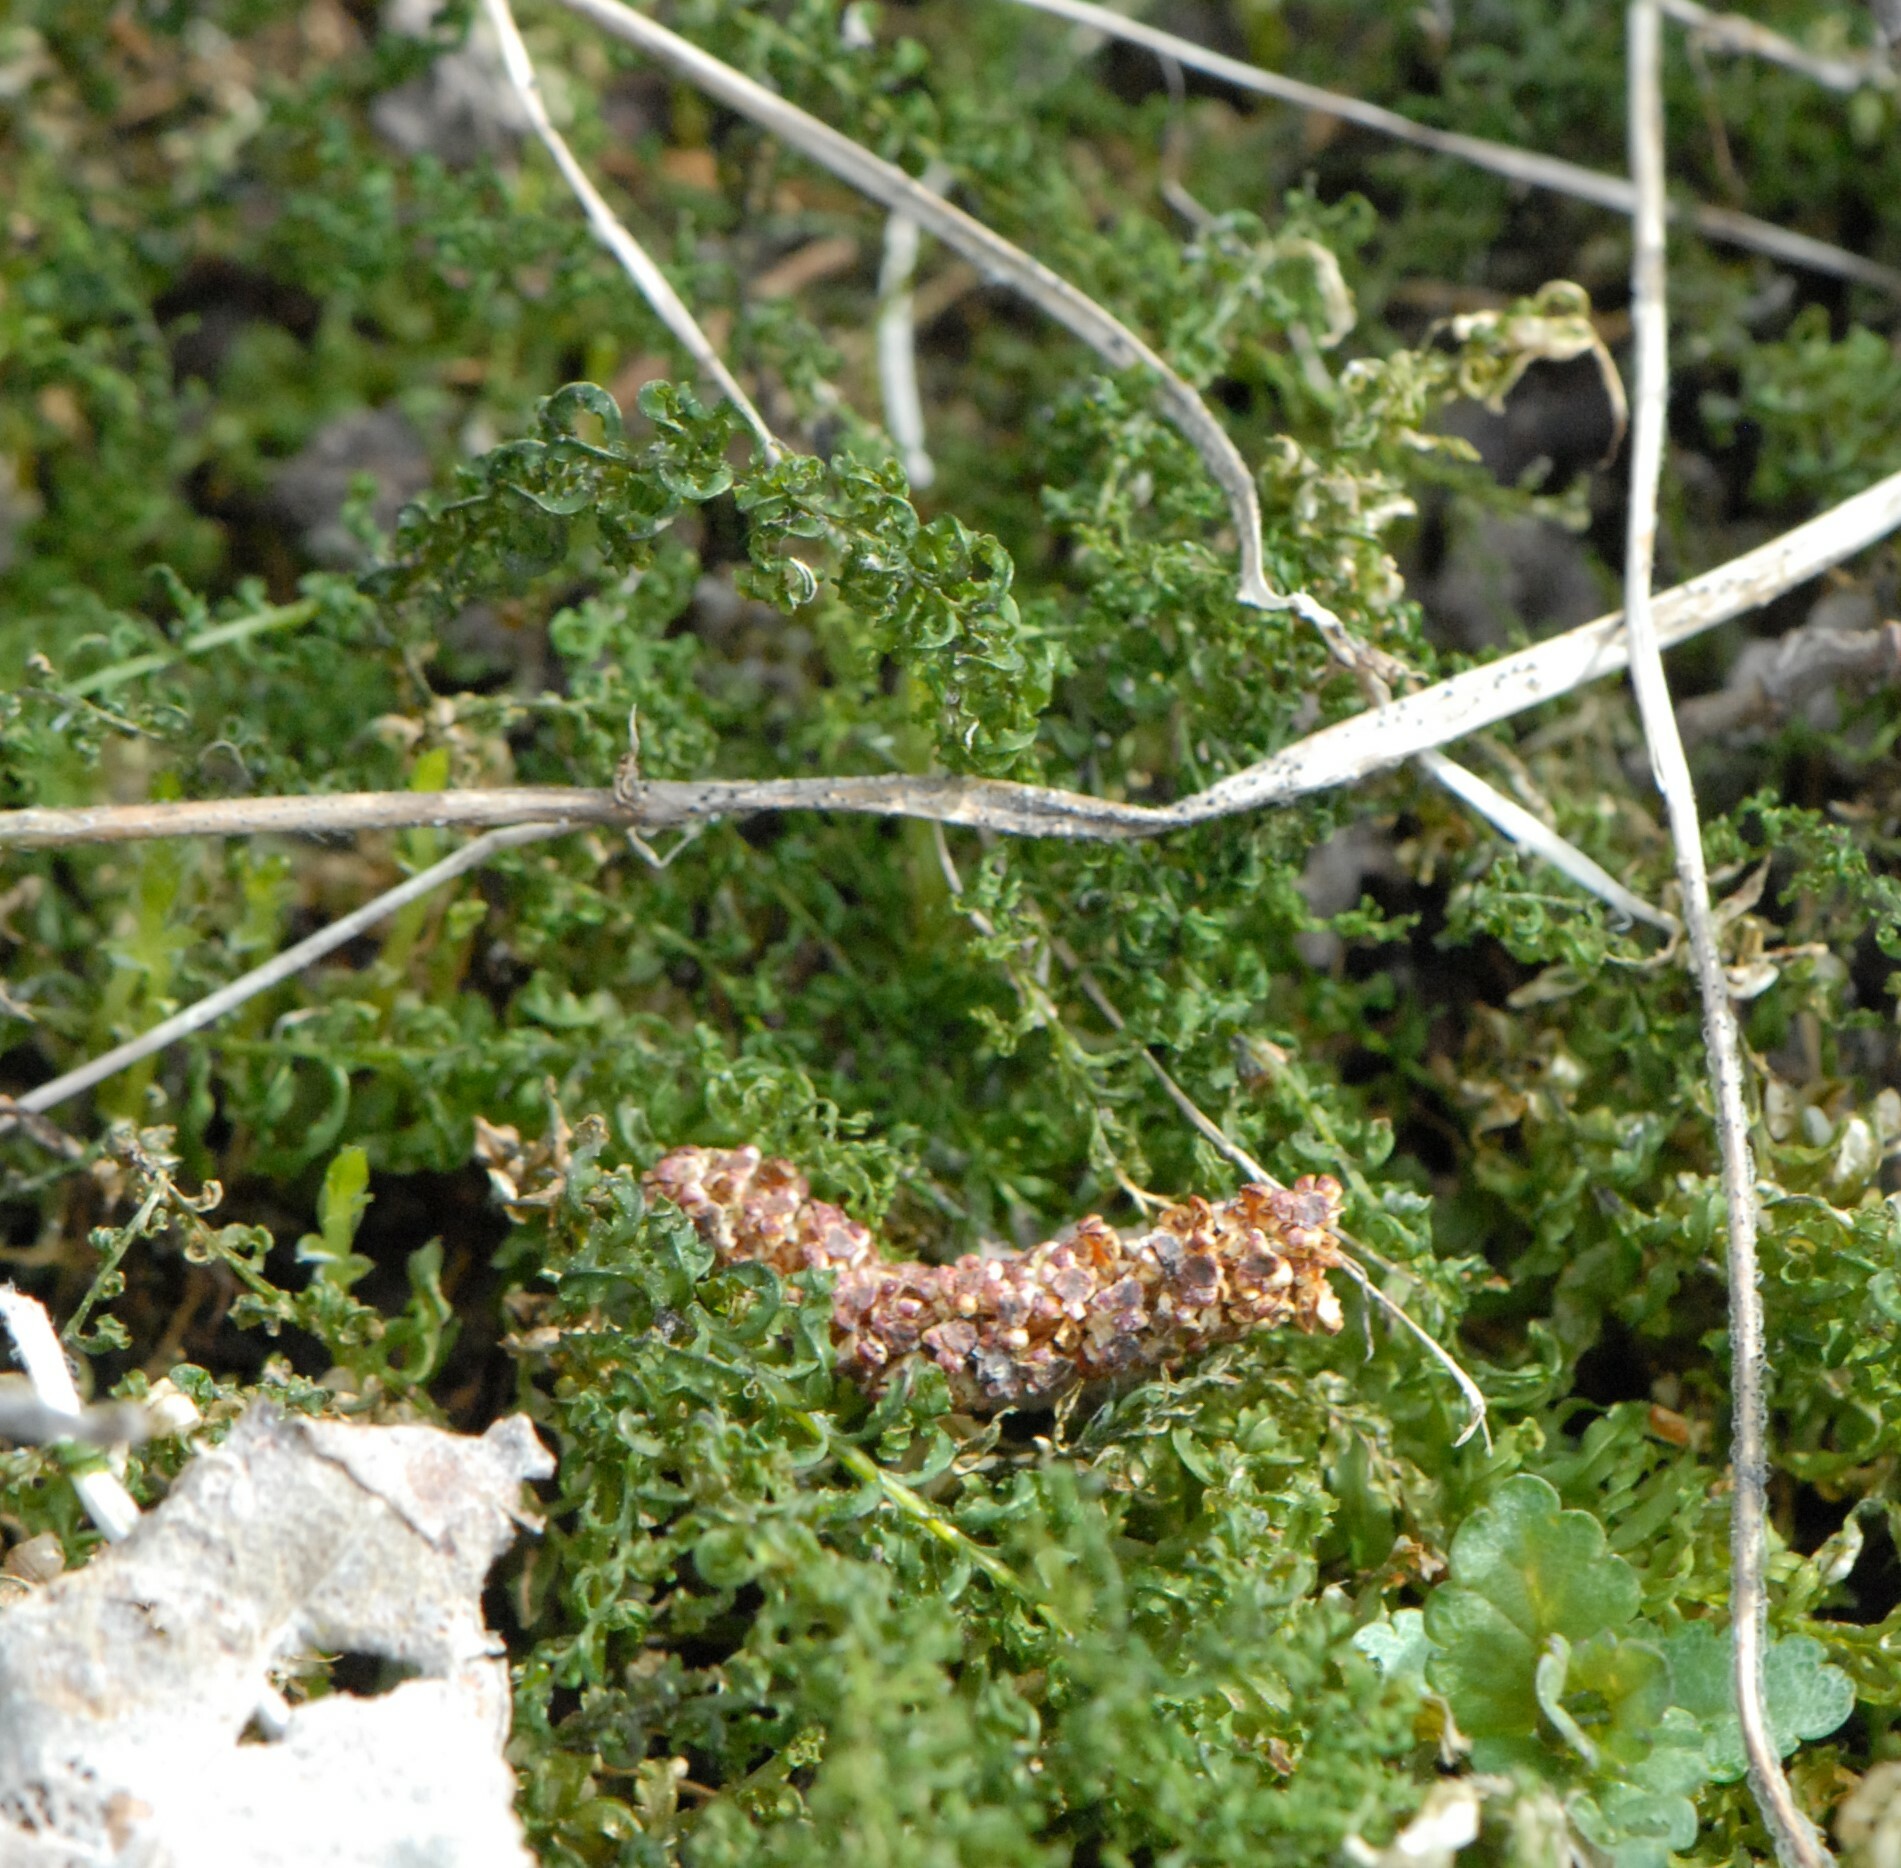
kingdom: Plantae
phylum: Bryophyta
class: Bryopsida
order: Bryales
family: Mniaceae
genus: Plagiomnium
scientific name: Plagiomnium undulatum
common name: Hart's-tongue thyme-moss
